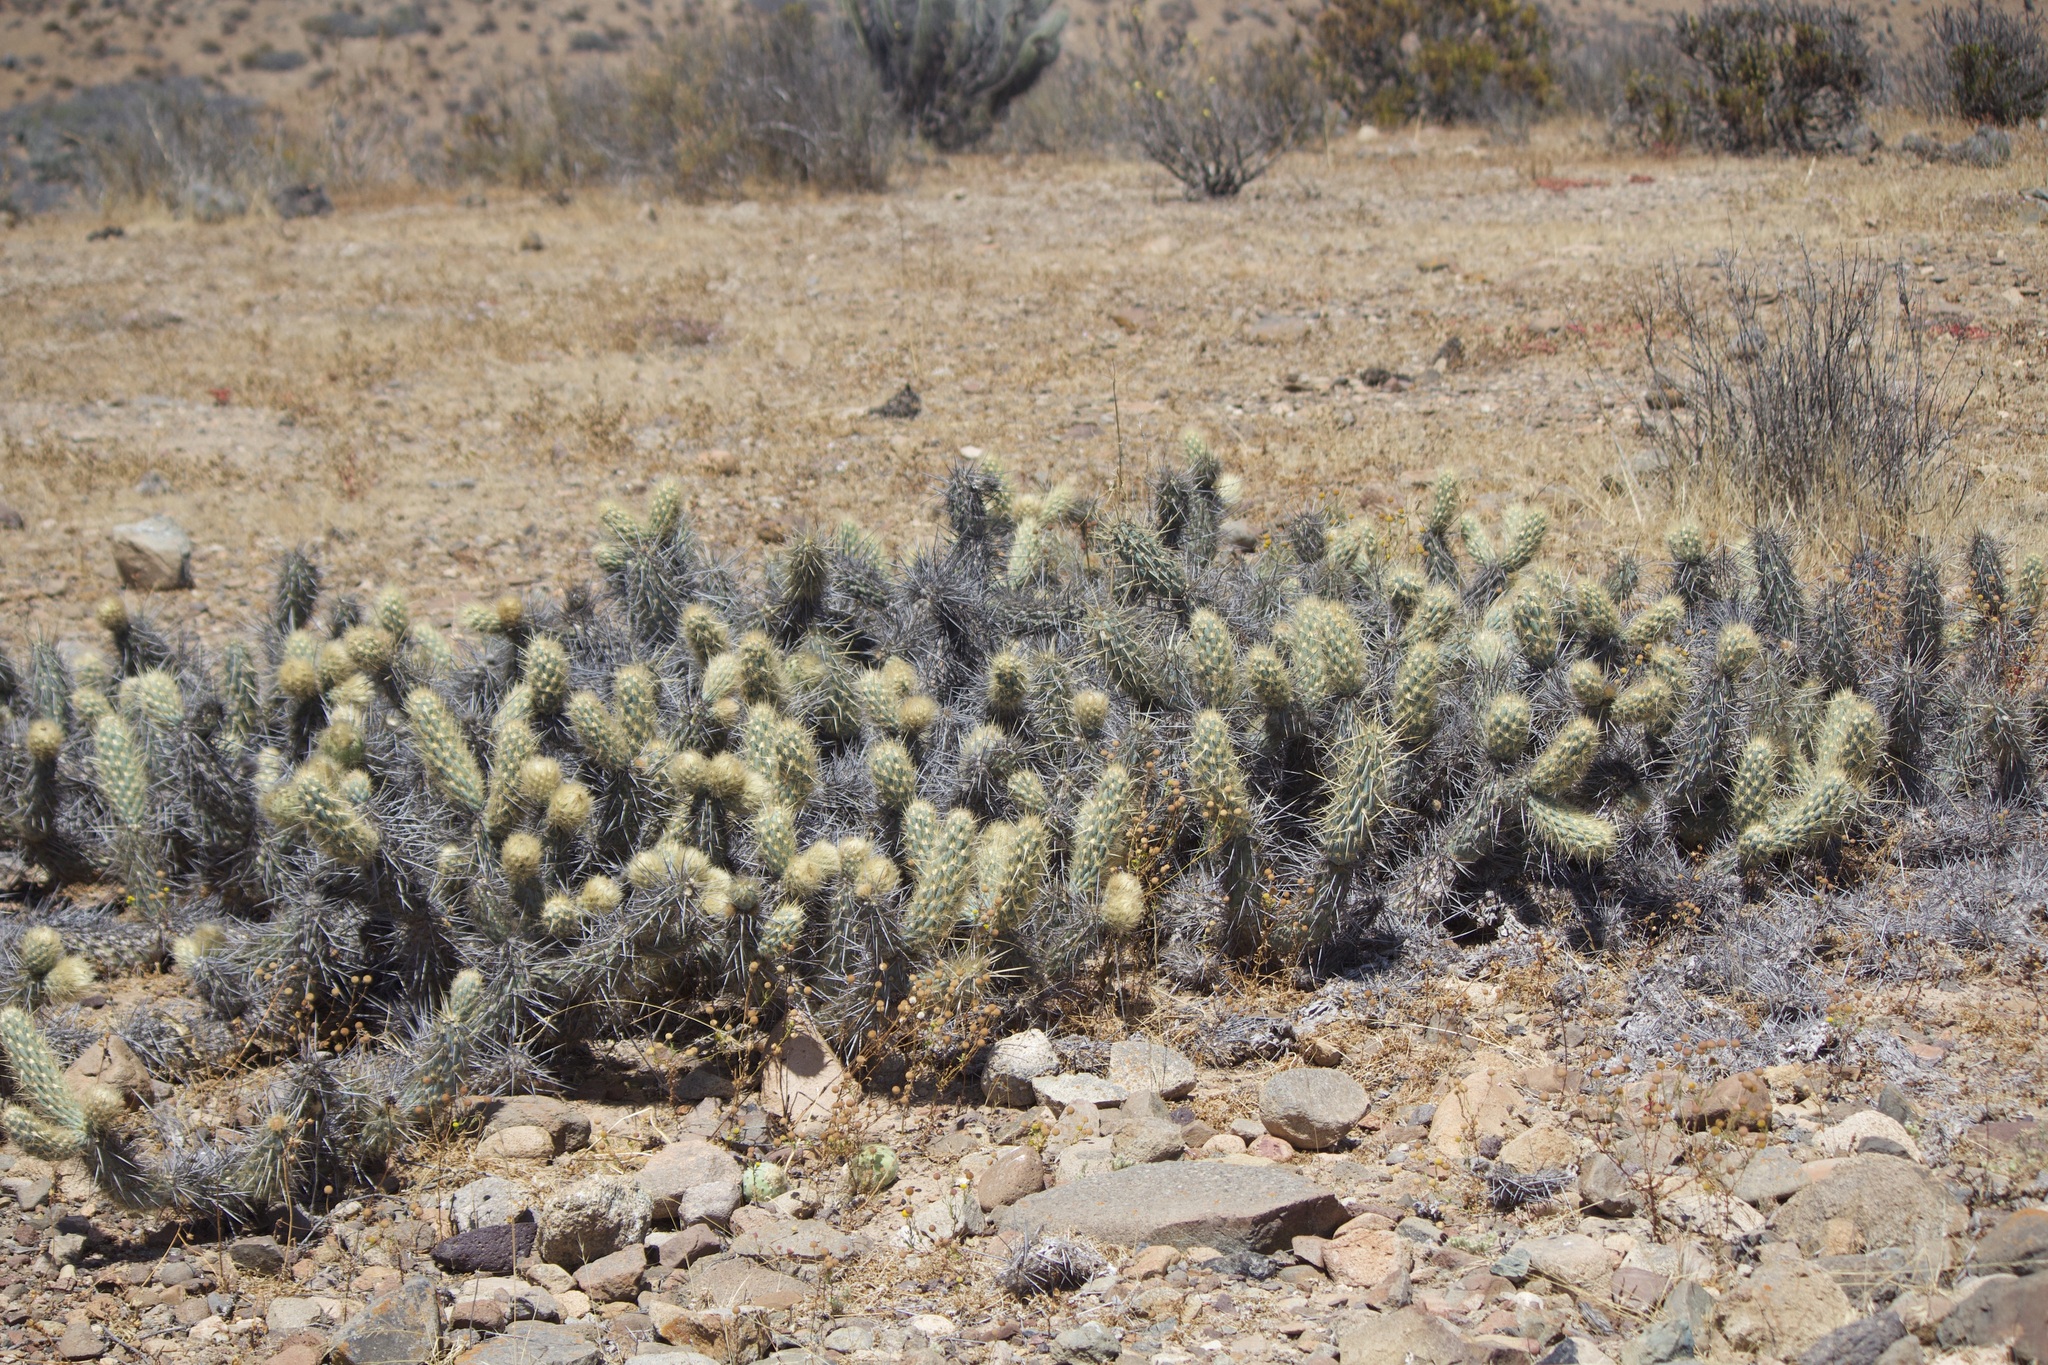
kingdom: Plantae
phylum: Tracheophyta
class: Magnoliopsida
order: Caryophyllales
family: Cactaceae
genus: Miqueliopuntia
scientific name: Miqueliopuntia miquelii
